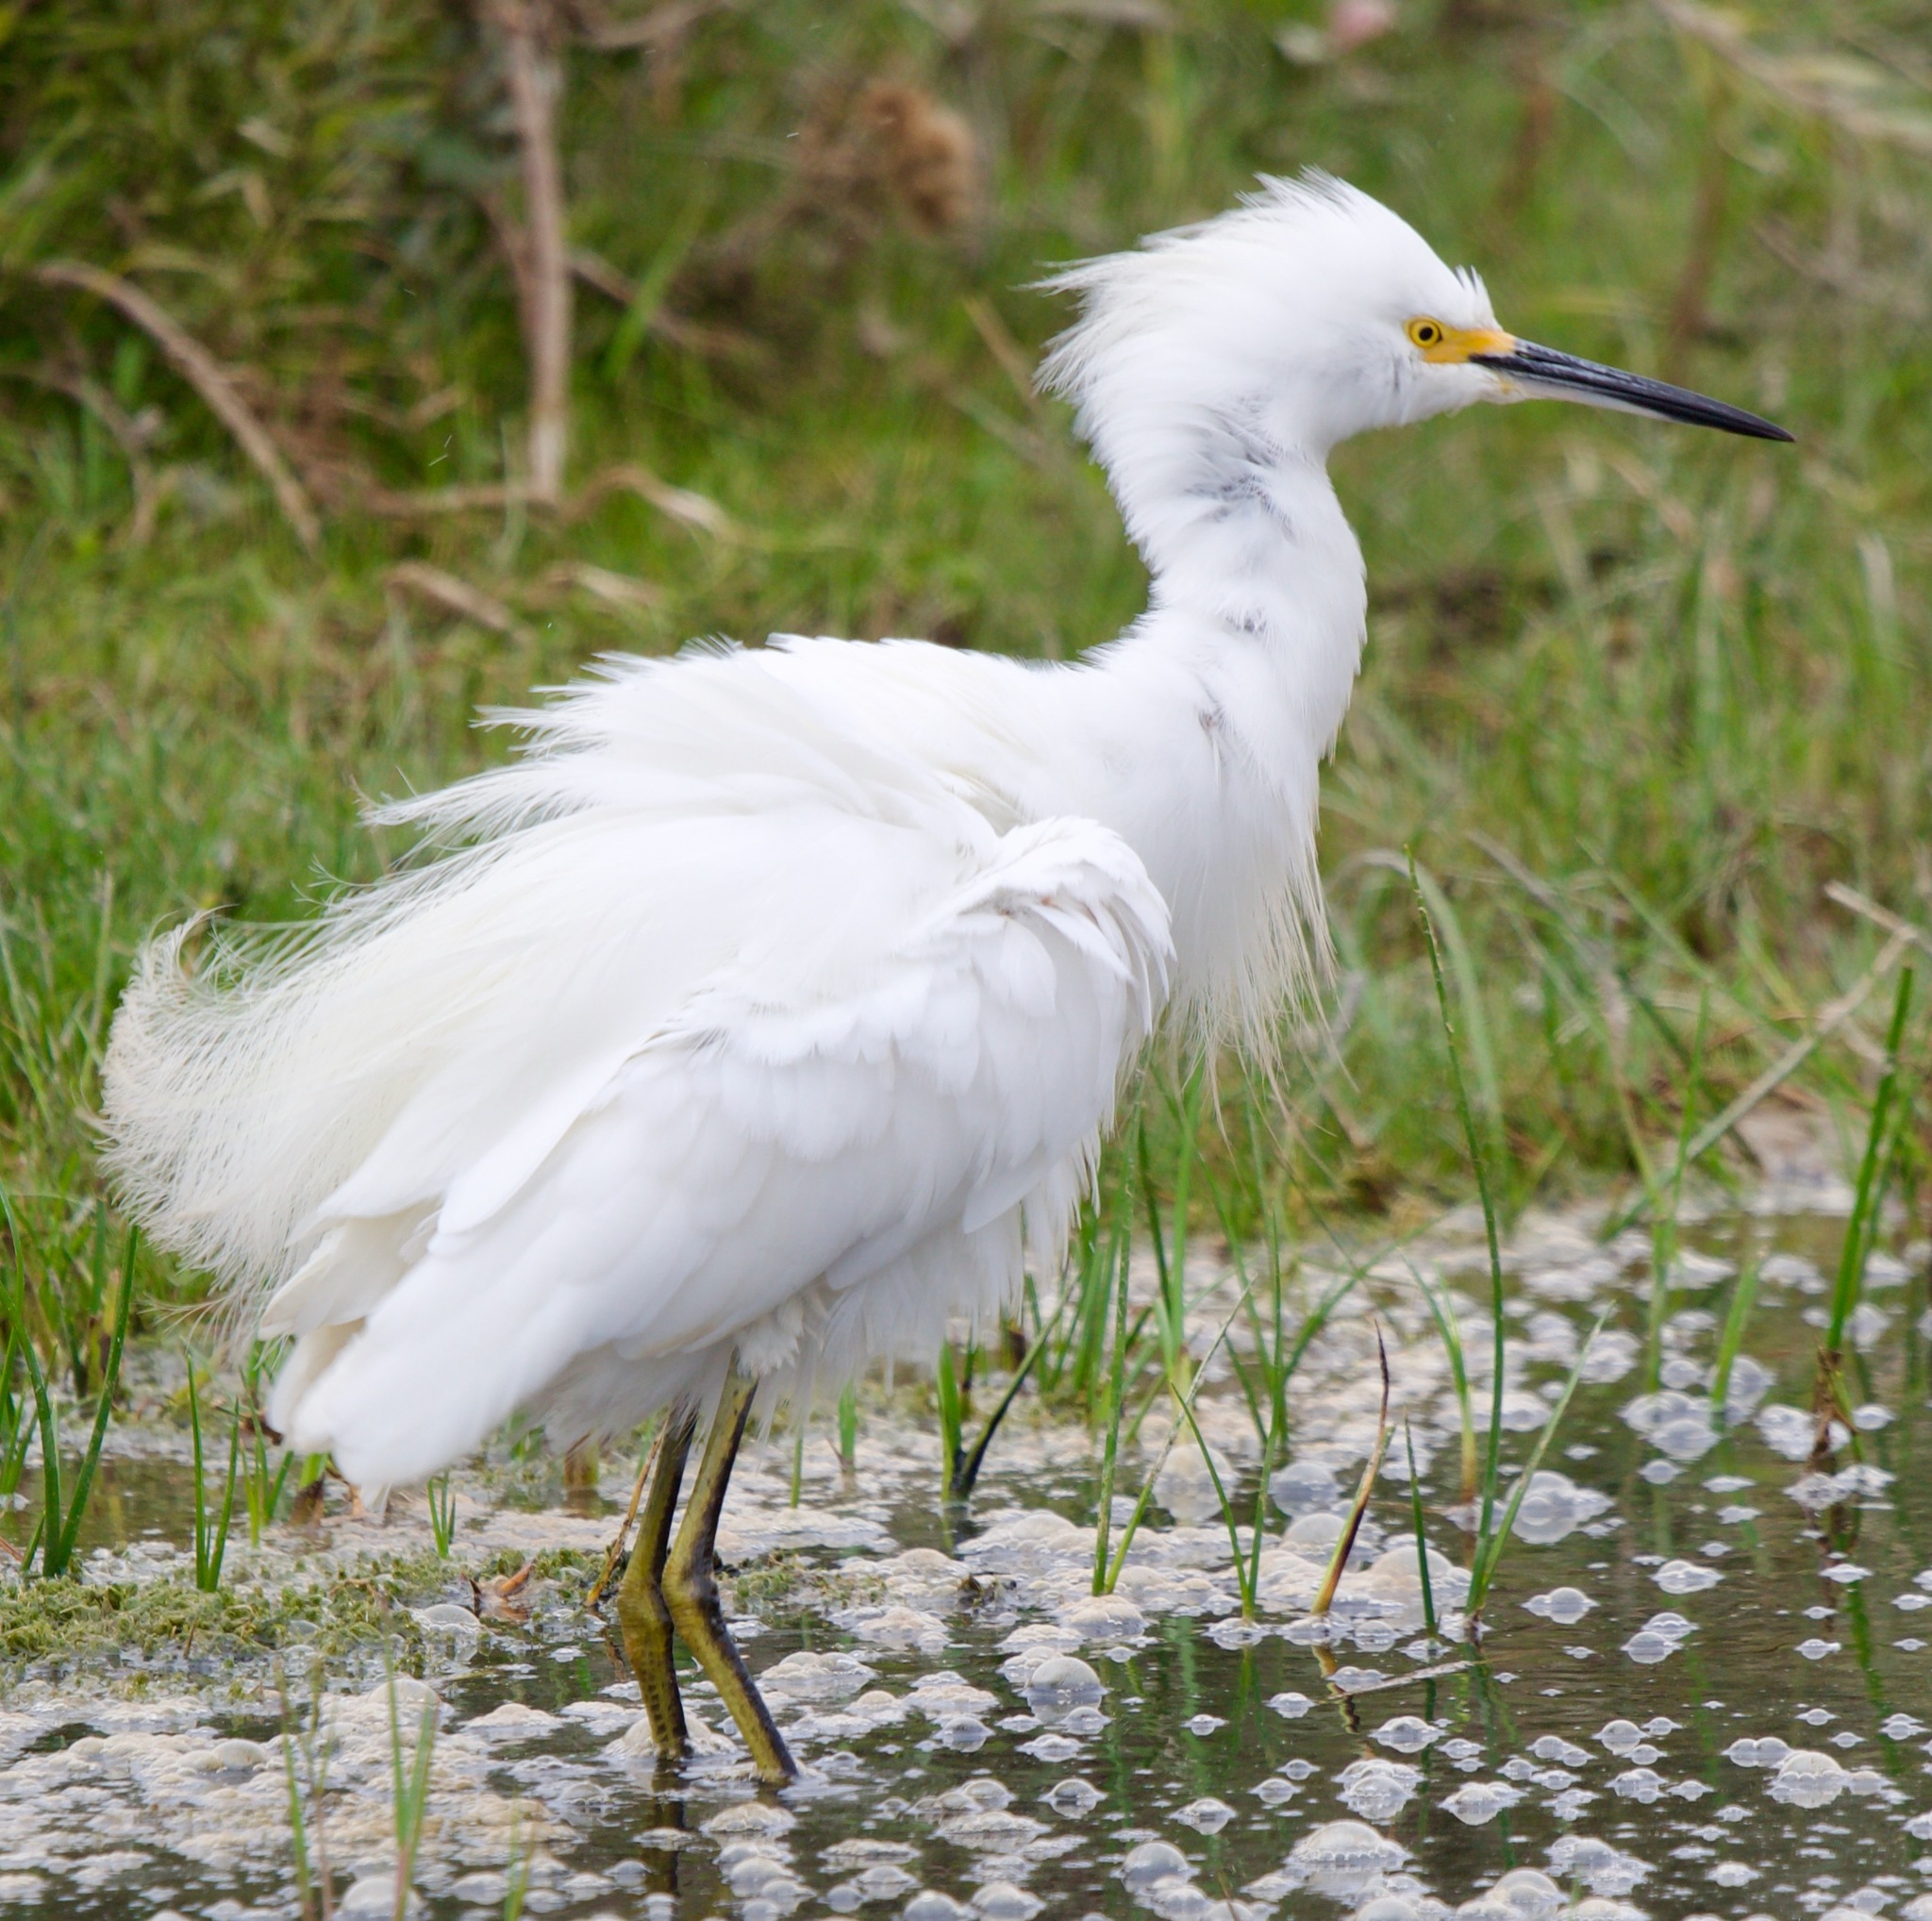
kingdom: Animalia
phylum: Chordata
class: Aves
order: Pelecaniformes
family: Ardeidae
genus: Egretta
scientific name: Egretta thula
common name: Snowy egret
